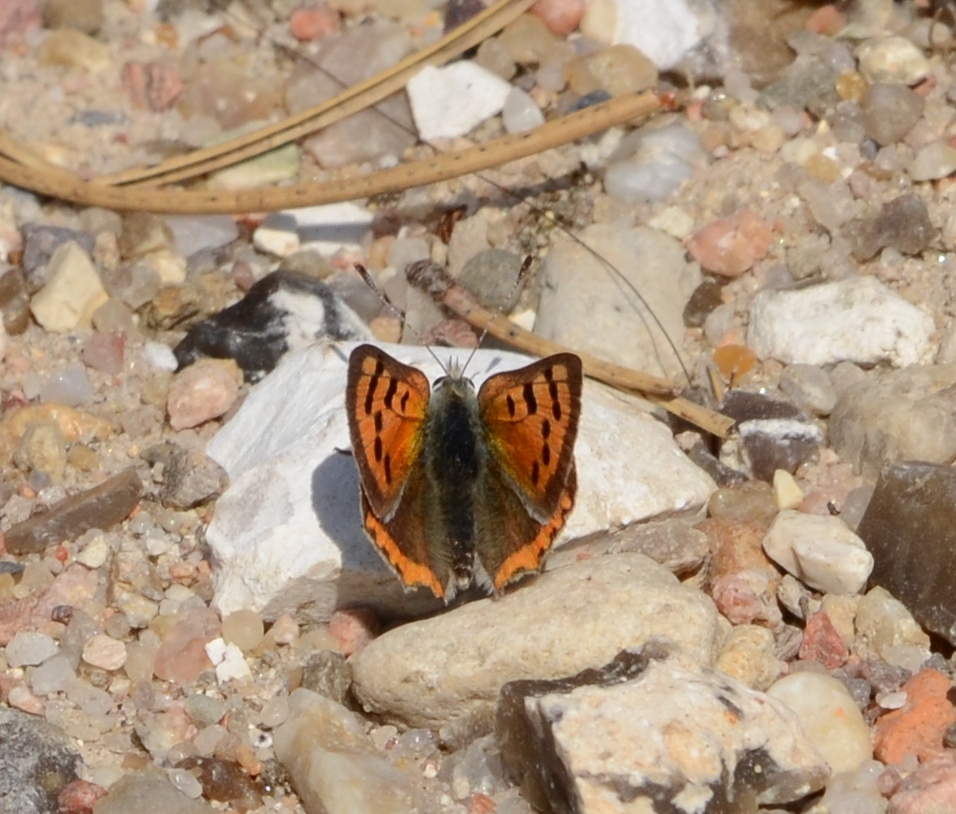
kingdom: Animalia
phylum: Arthropoda
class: Insecta
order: Lepidoptera
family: Lycaenidae
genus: Lycaena
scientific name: Lycaena phlaeas
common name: Small copper
